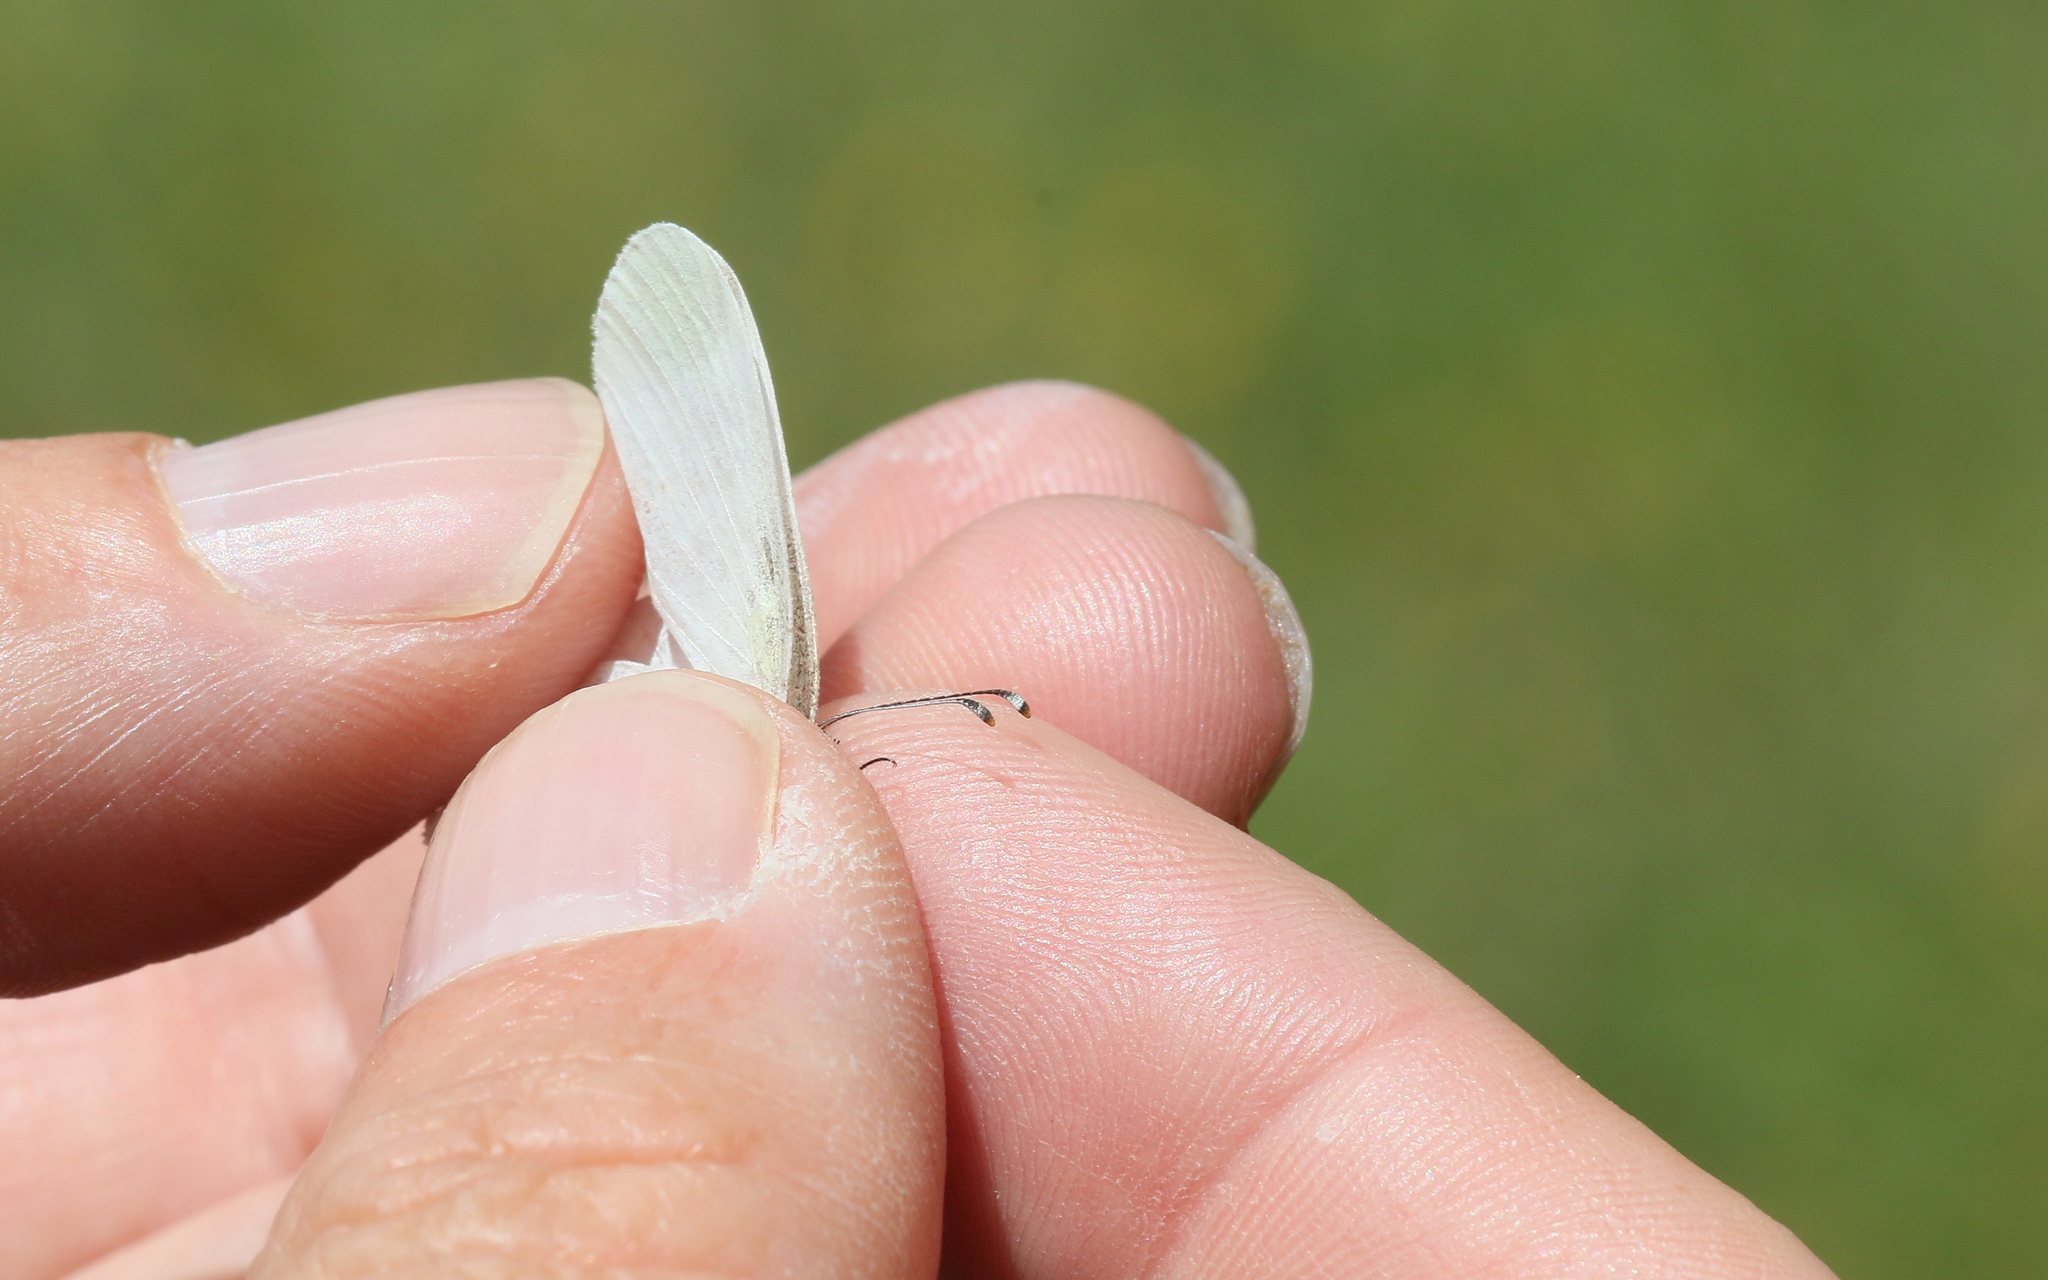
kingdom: Animalia
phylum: Arthropoda
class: Insecta
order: Lepidoptera
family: Pieridae
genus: Leptidea
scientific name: Leptidea sinapis
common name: Wood white
